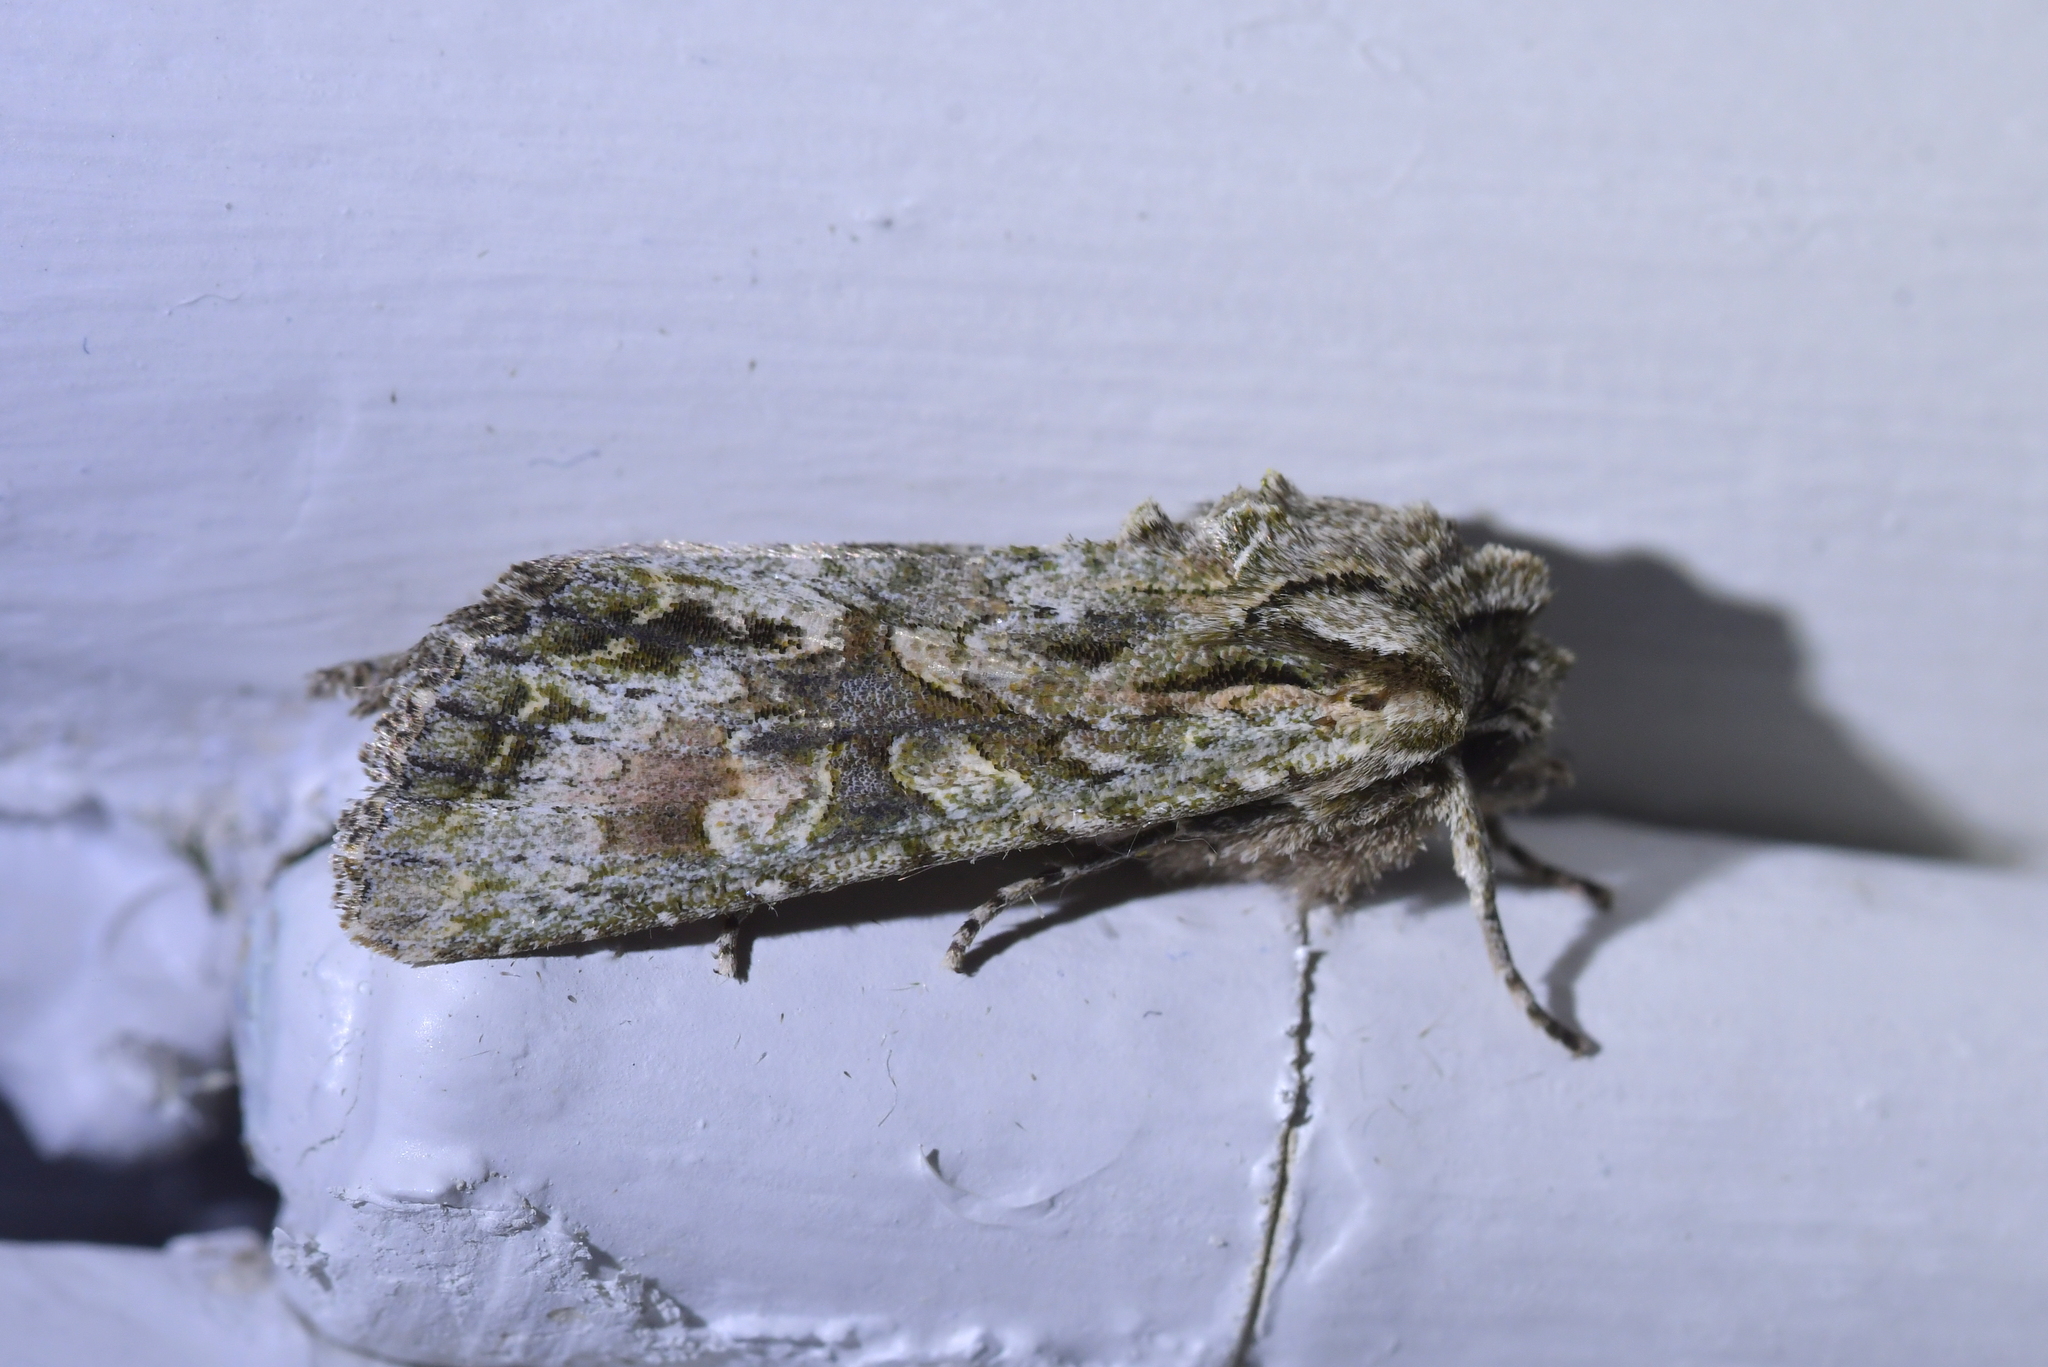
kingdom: Animalia
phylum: Arthropoda
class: Insecta
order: Lepidoptera
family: Noctuidae
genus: Ichneutica
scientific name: Ichneutica mutans
